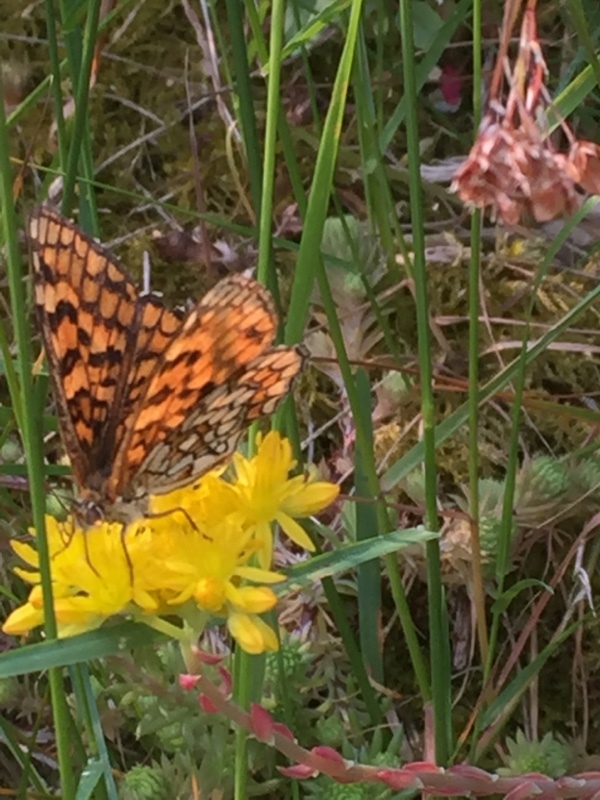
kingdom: Animalia
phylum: Arthropoda
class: Insecta
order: Lepidoptera
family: Nymphalidae
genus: Mellicta
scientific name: Mellicta athalia
